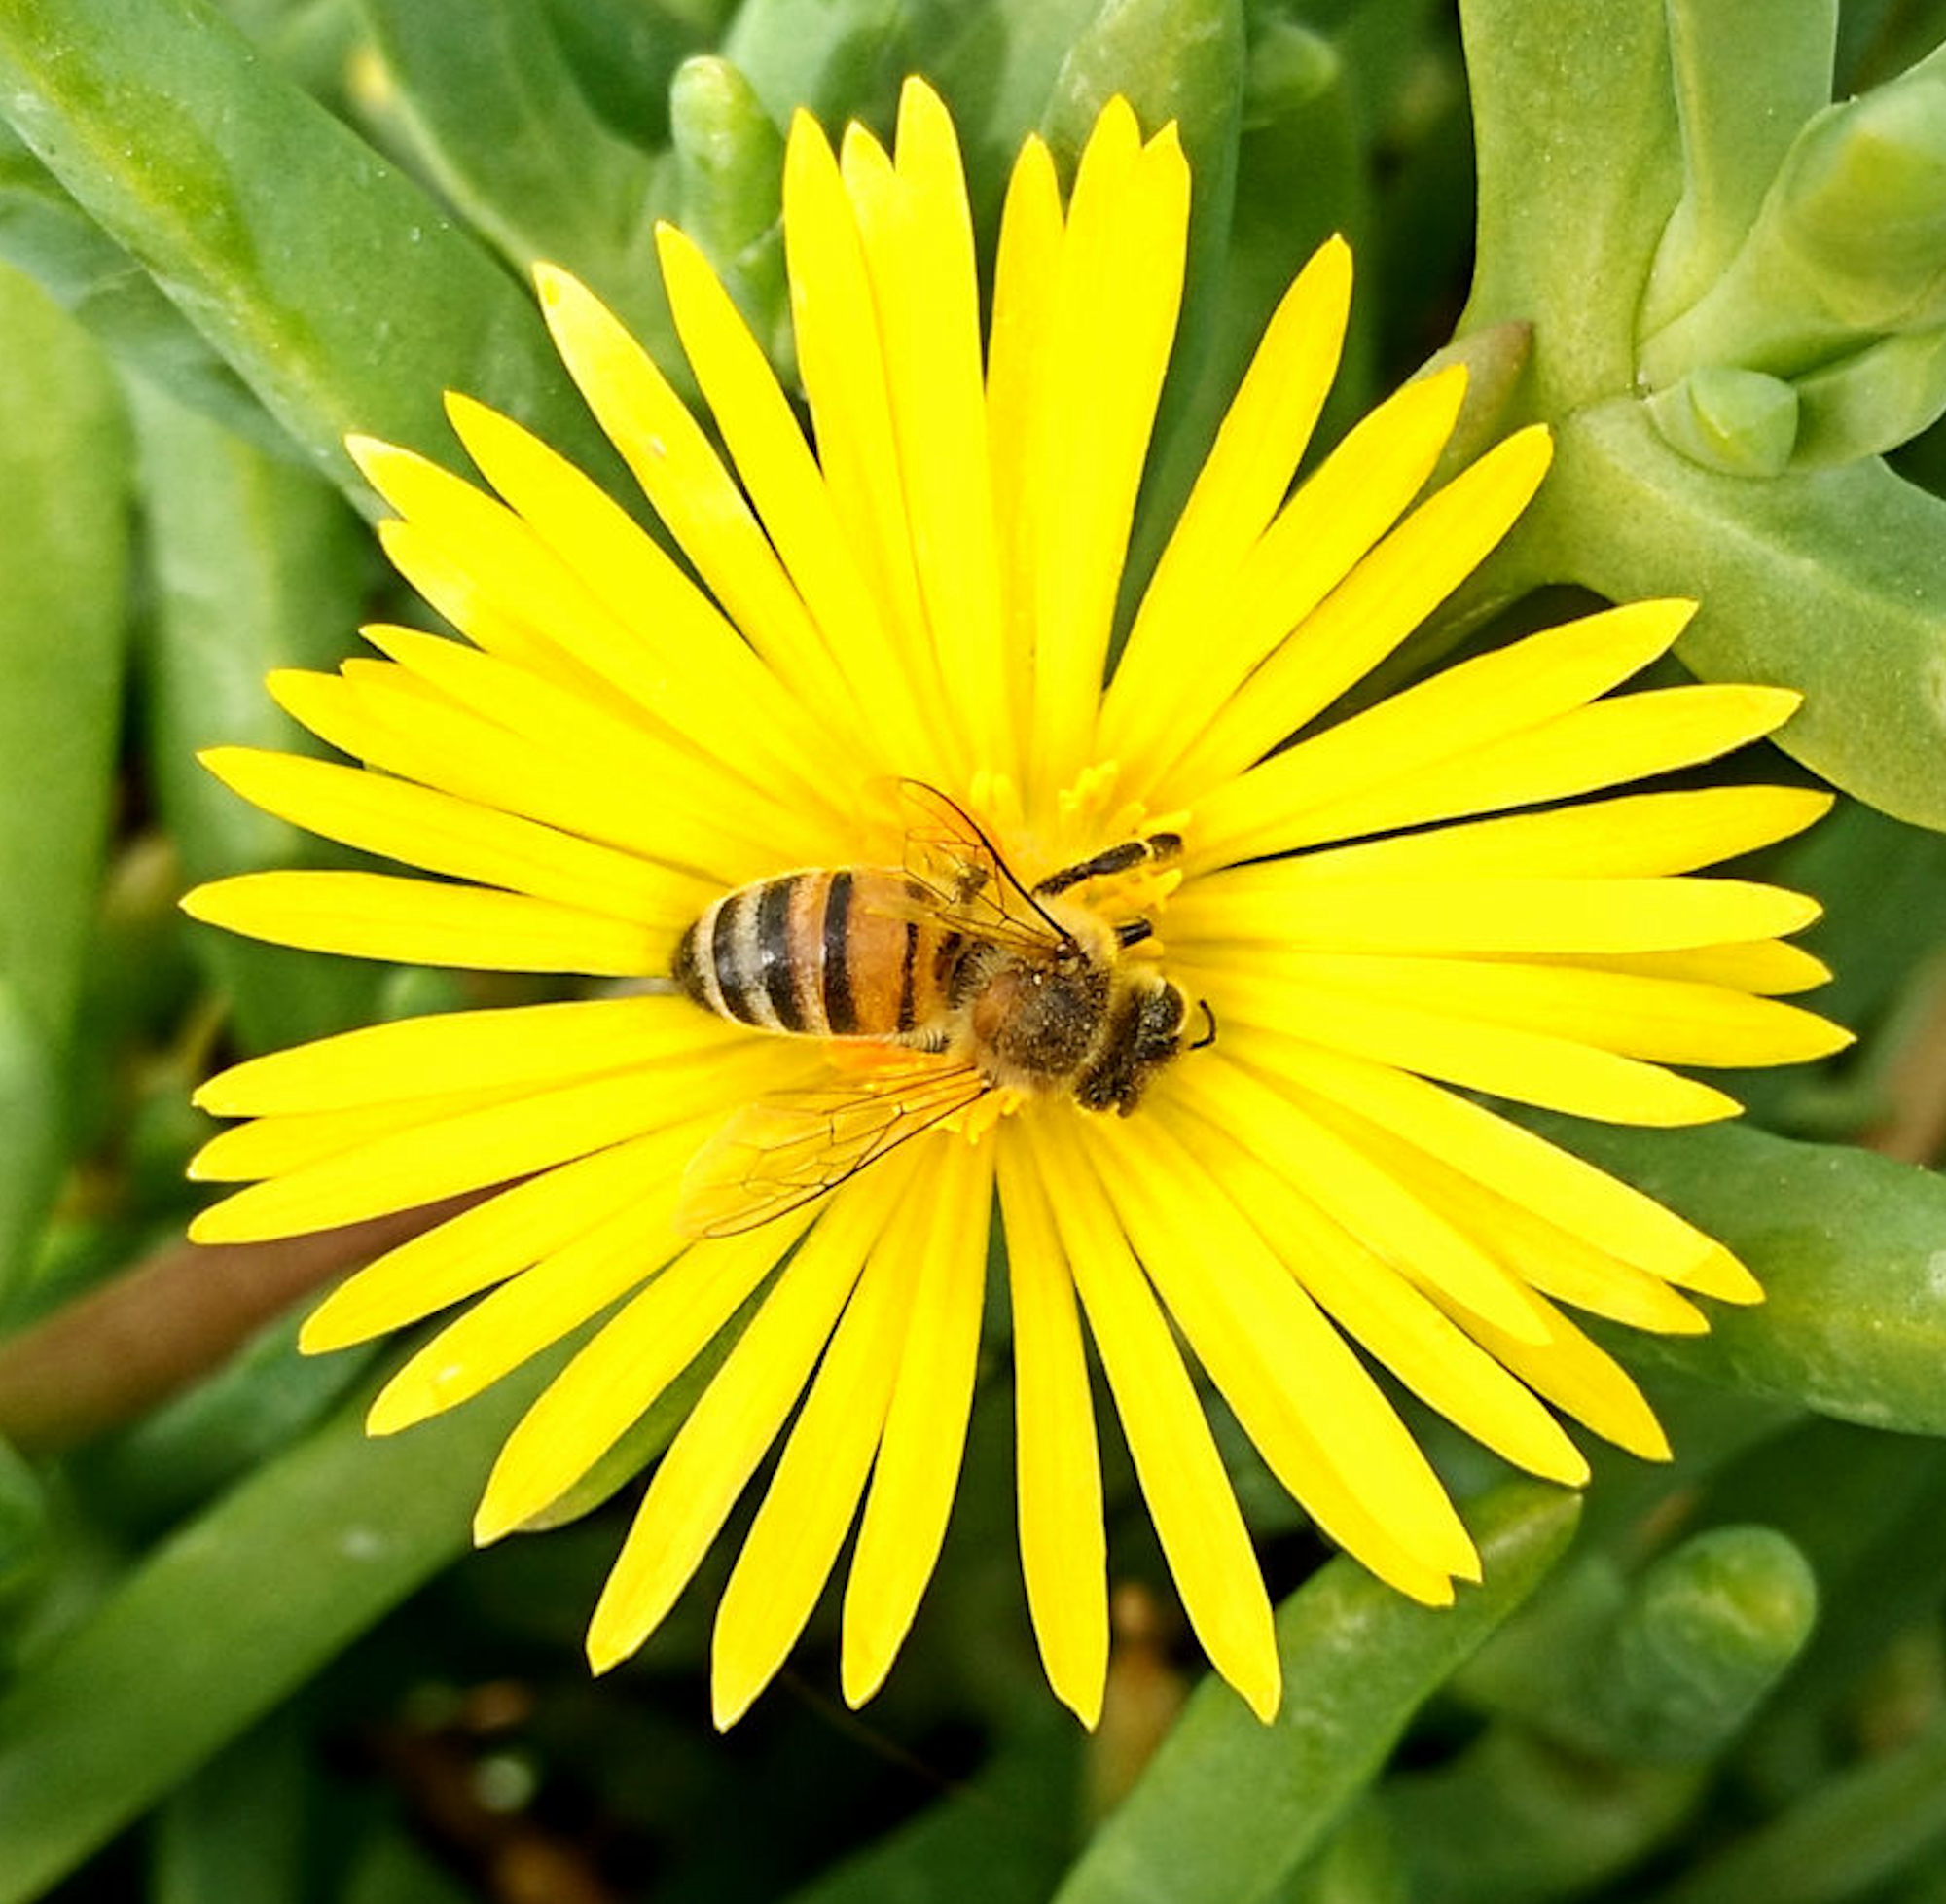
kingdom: Animalia
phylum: Arthropoda
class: Insecta
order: Hymenoptera
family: Apidae
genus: Apis
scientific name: Apis mellifera
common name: Honey bee
